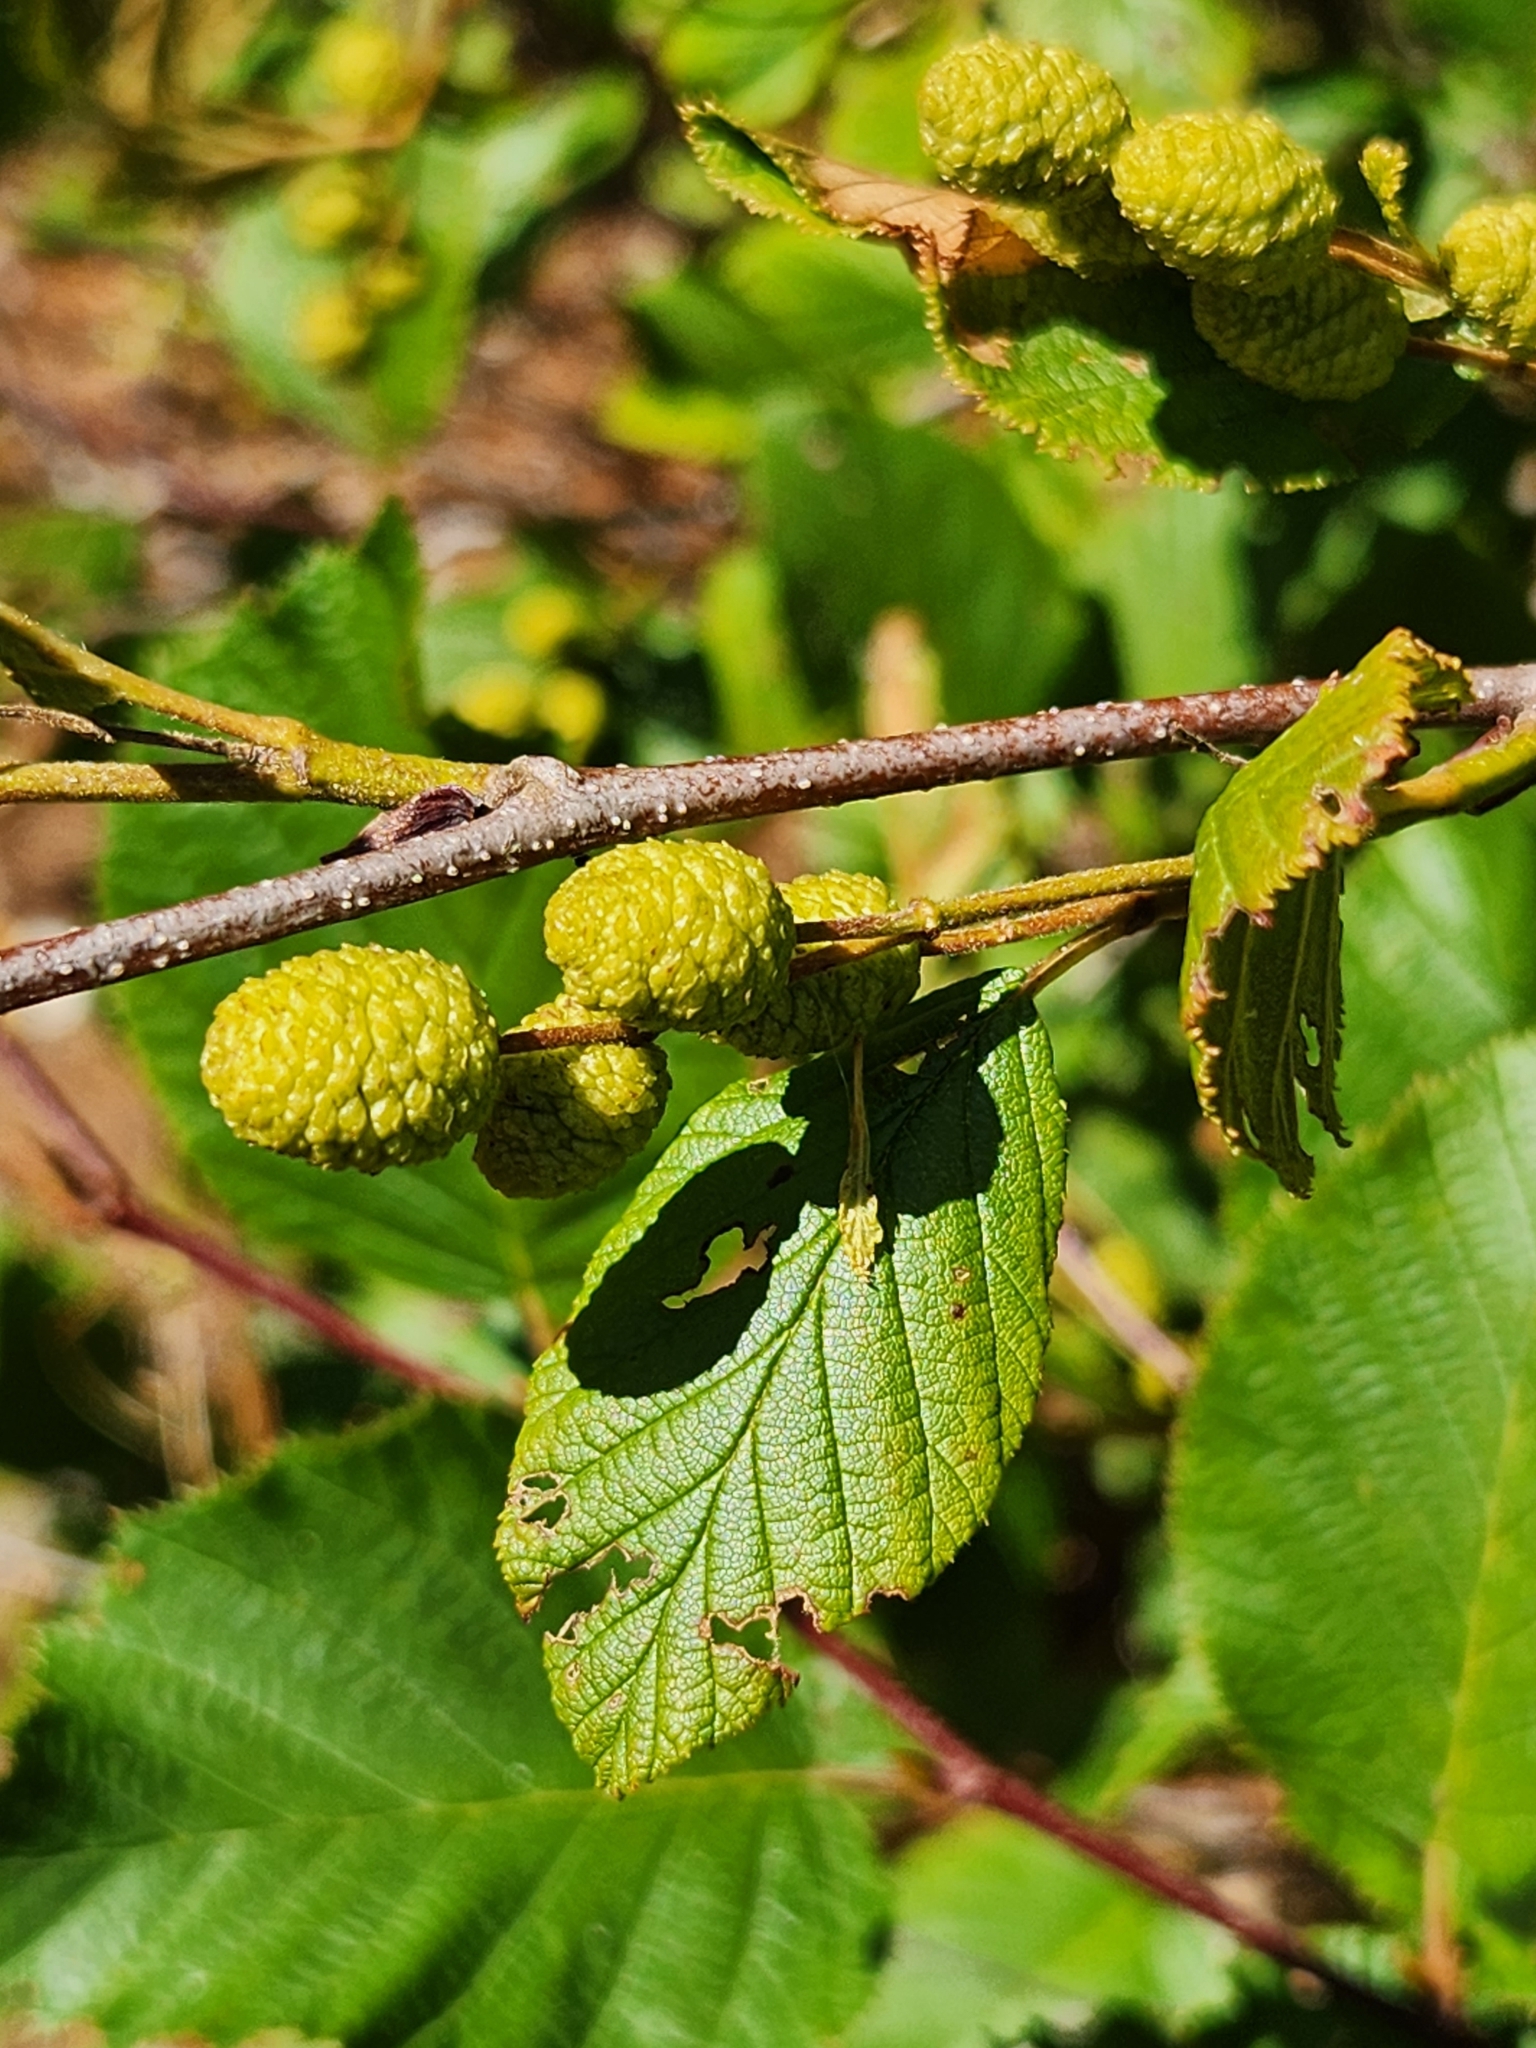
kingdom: Plantae
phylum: Tracheophyta
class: Magnoliopsida
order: Fagales
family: Betulaceae
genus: Alnus
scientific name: Alnus alnobetula
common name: Green alder
